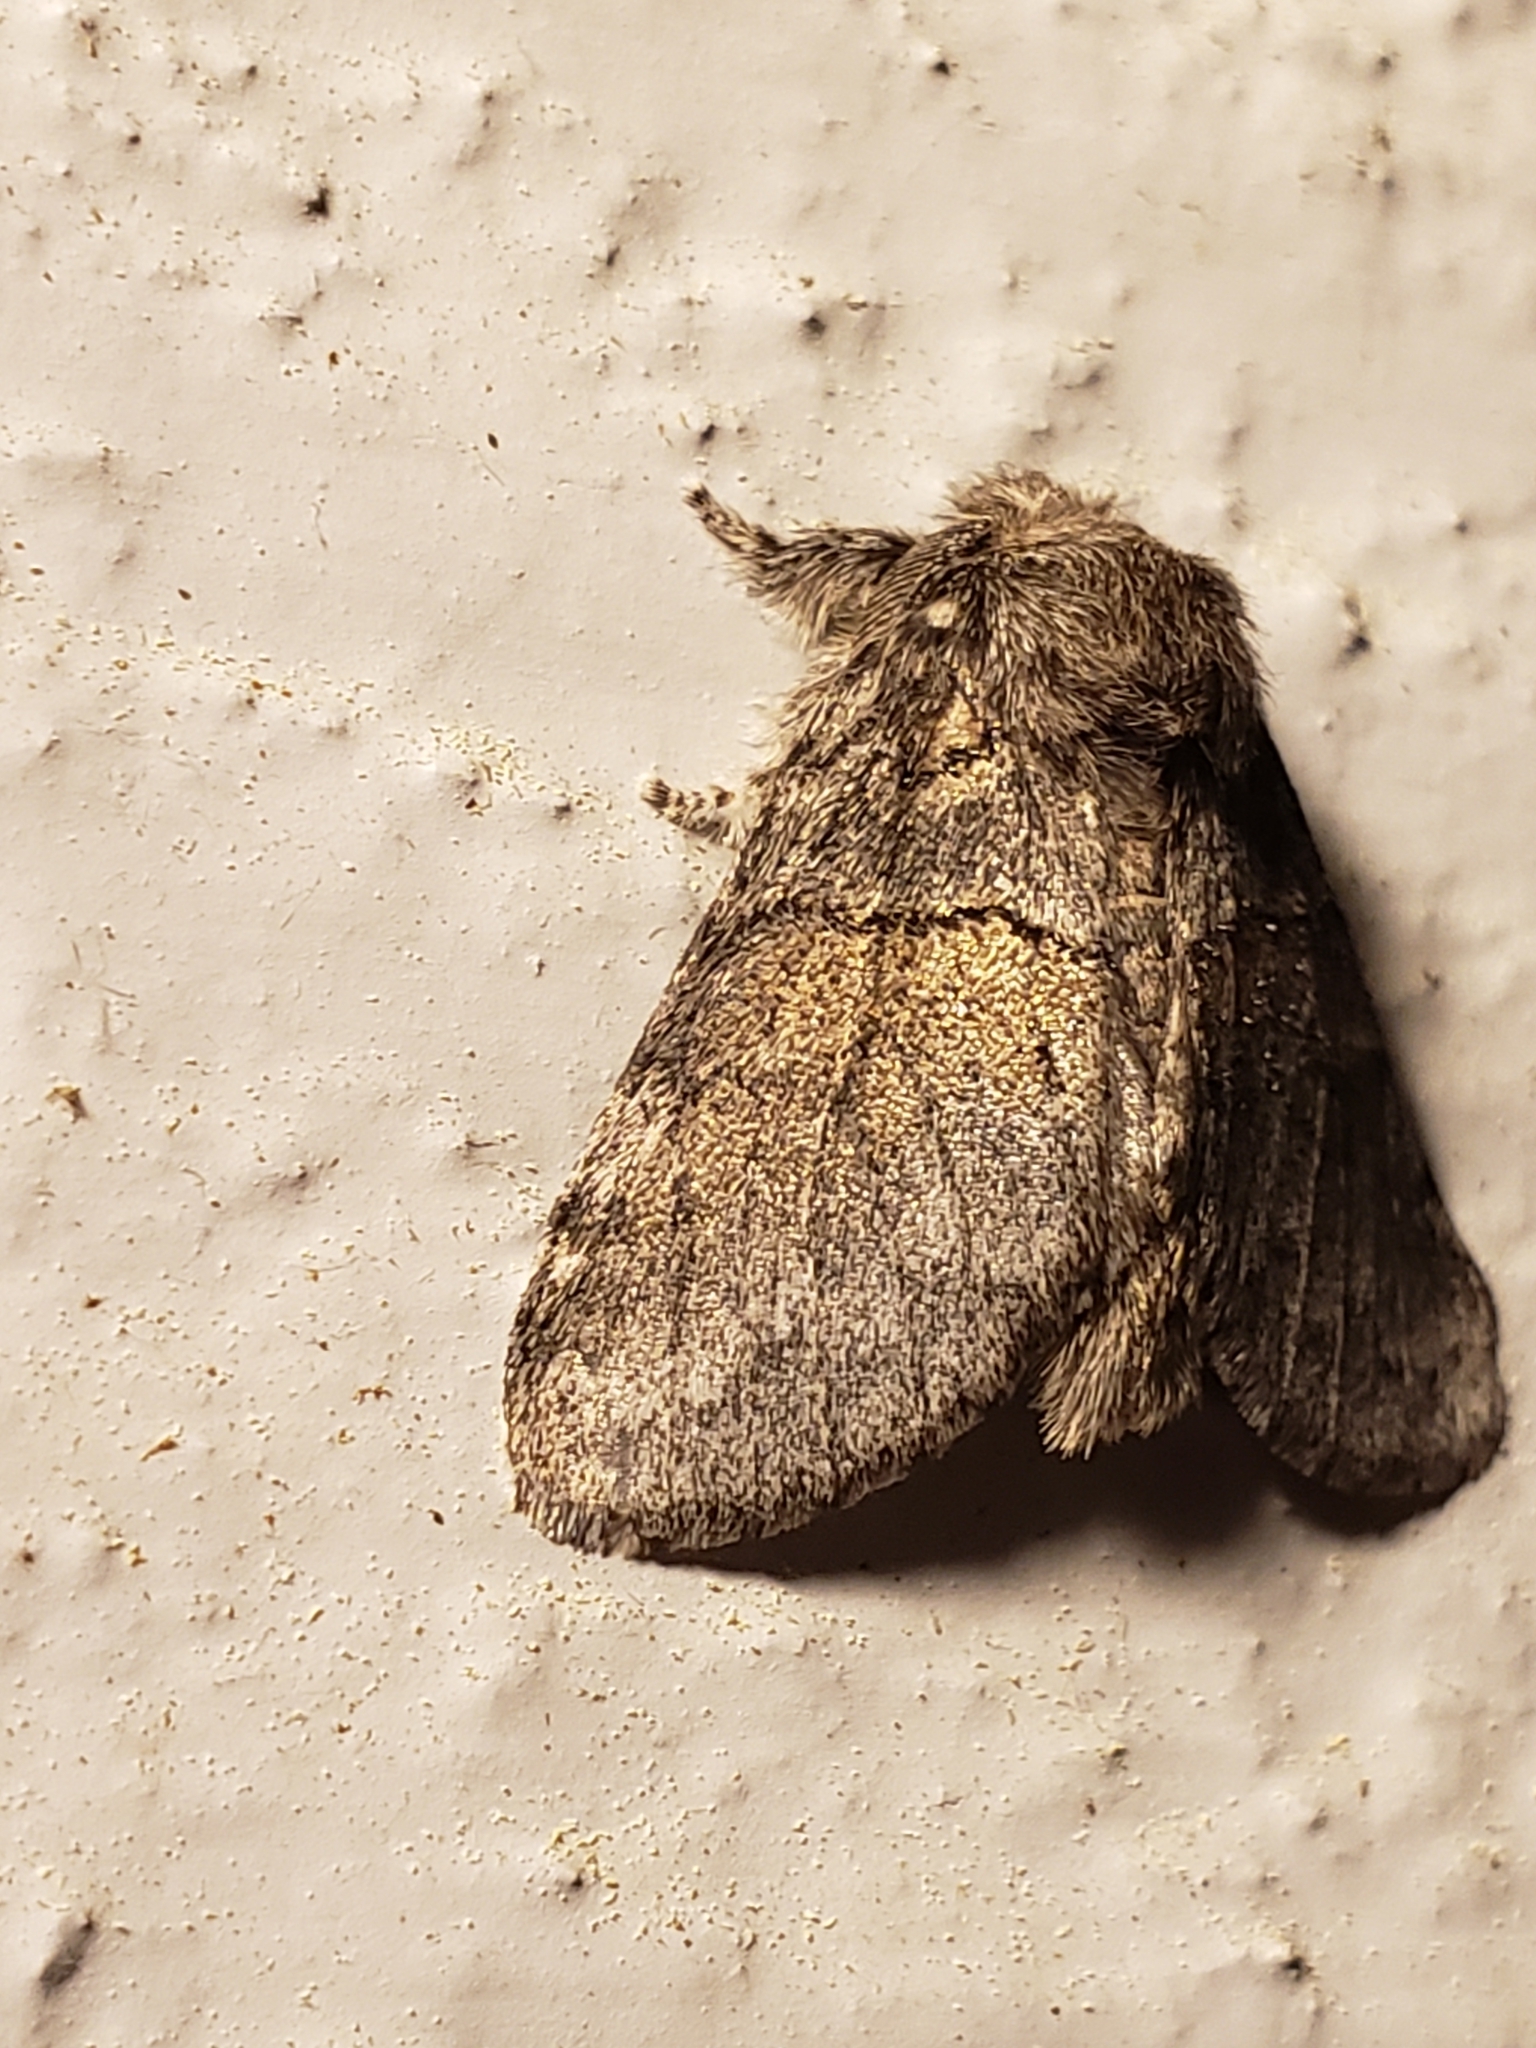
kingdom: Animalia
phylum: Arthropoda
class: Insecta
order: Lepidoptera
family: Notodontidae
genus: Gluphisia
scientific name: Gluphisia septentrionis
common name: Common gluphisia
